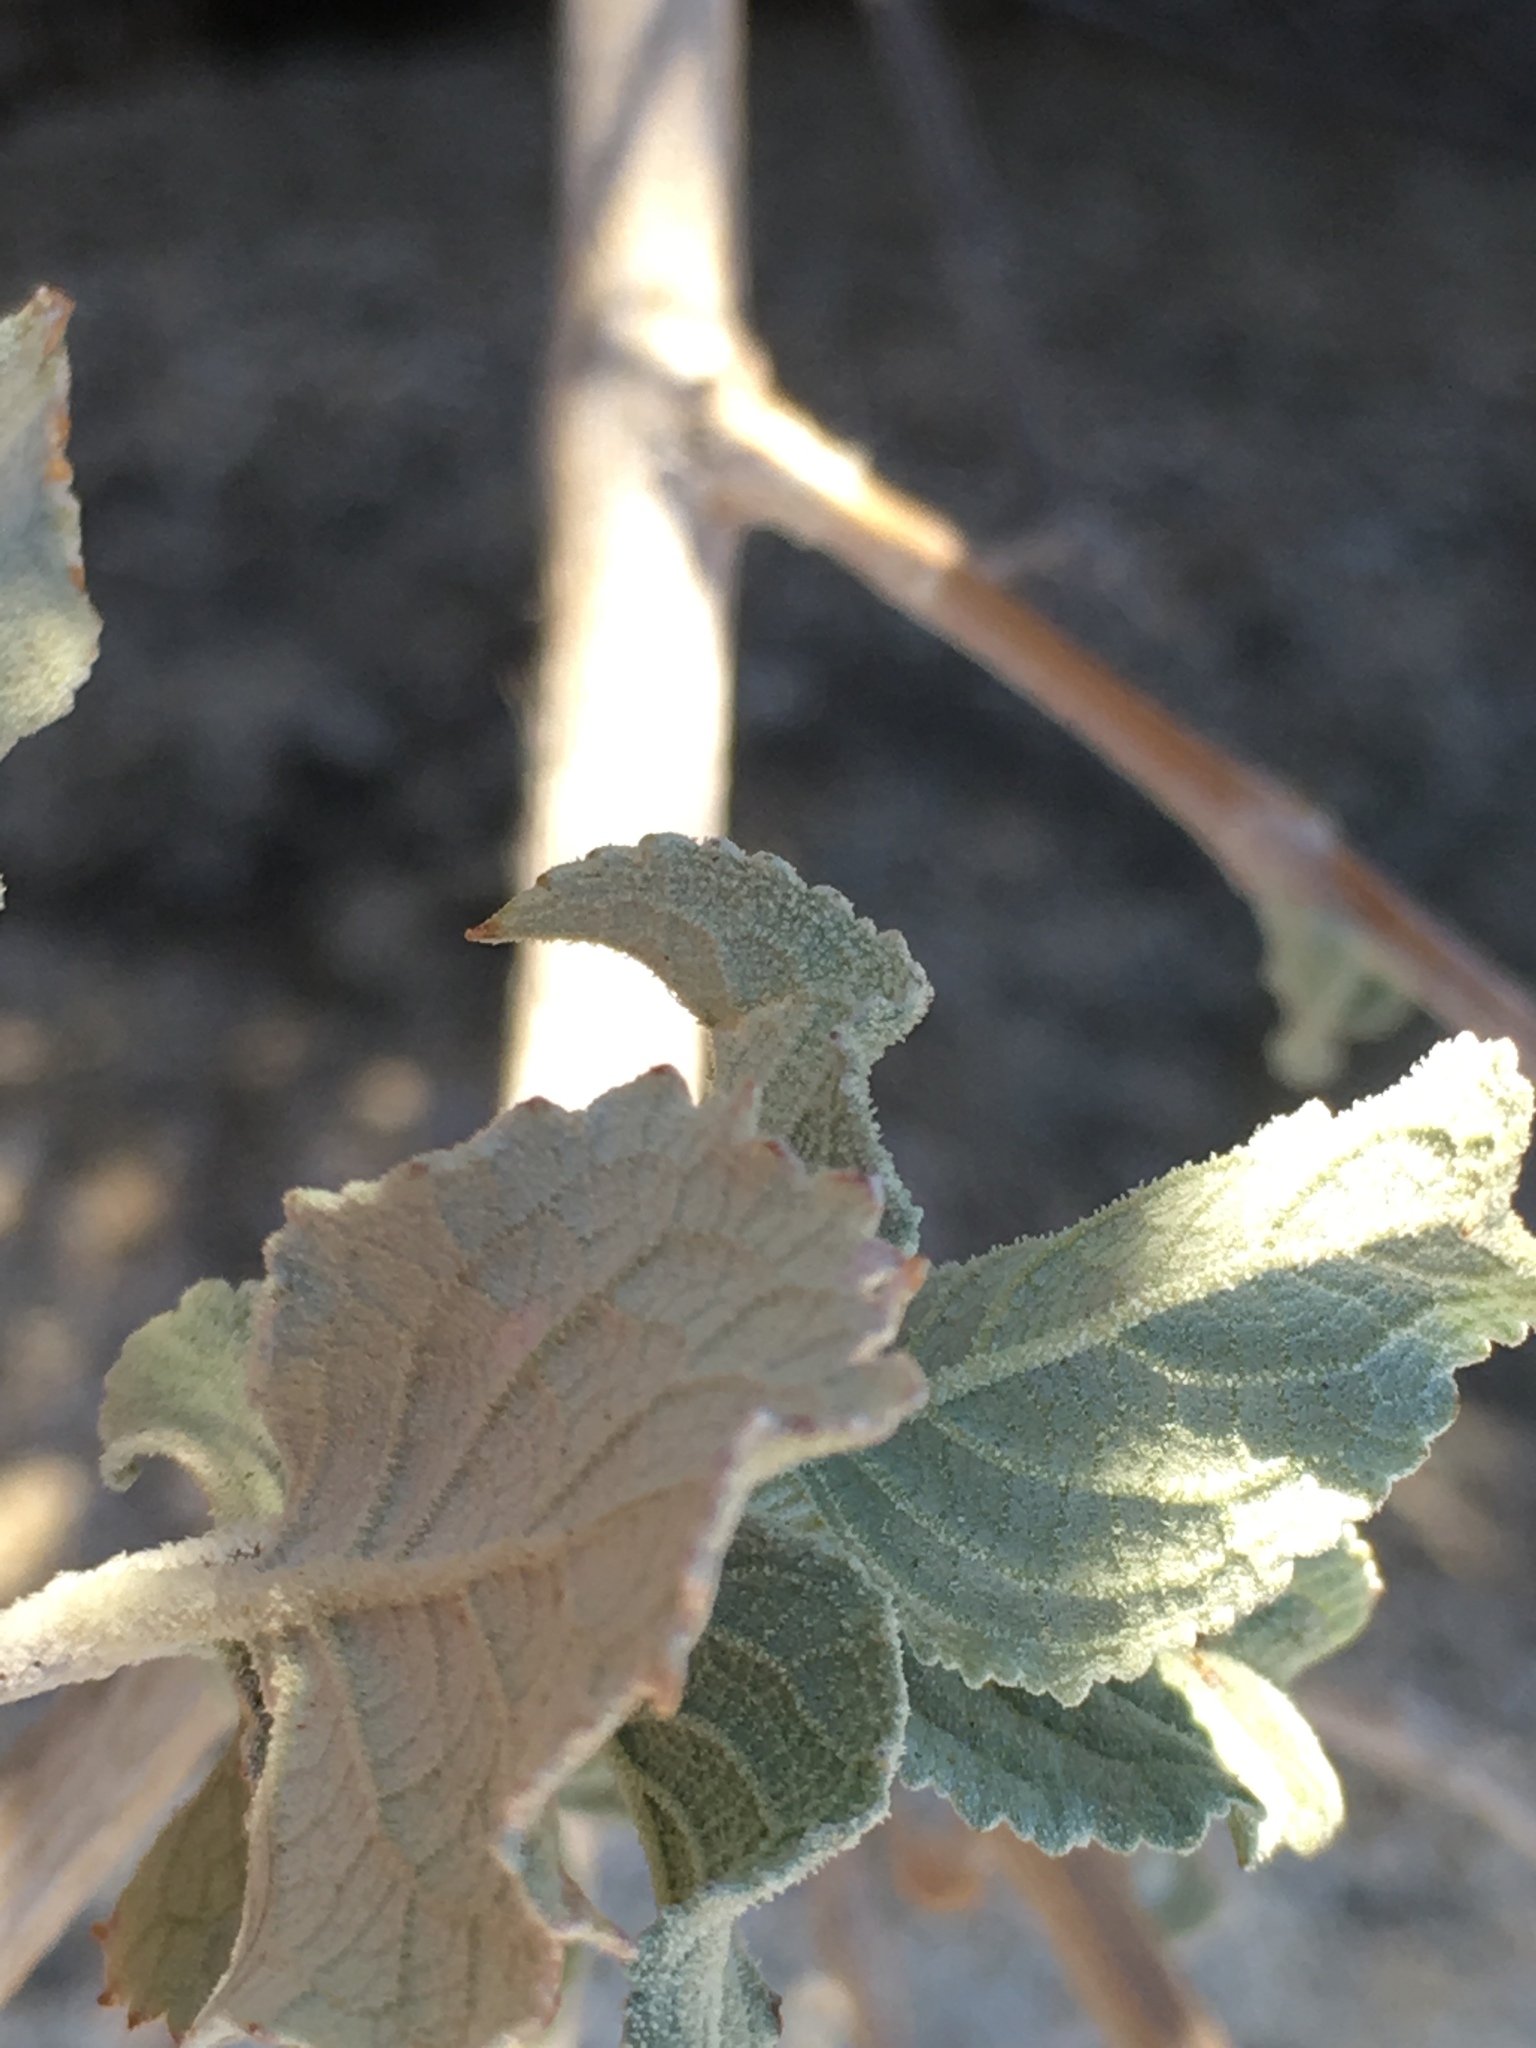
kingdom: Plantae
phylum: Tracheophyta
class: Magnoliopsida
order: Lamiales
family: Lamiaceae
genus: Condea
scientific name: Condea emoryi
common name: Chia
